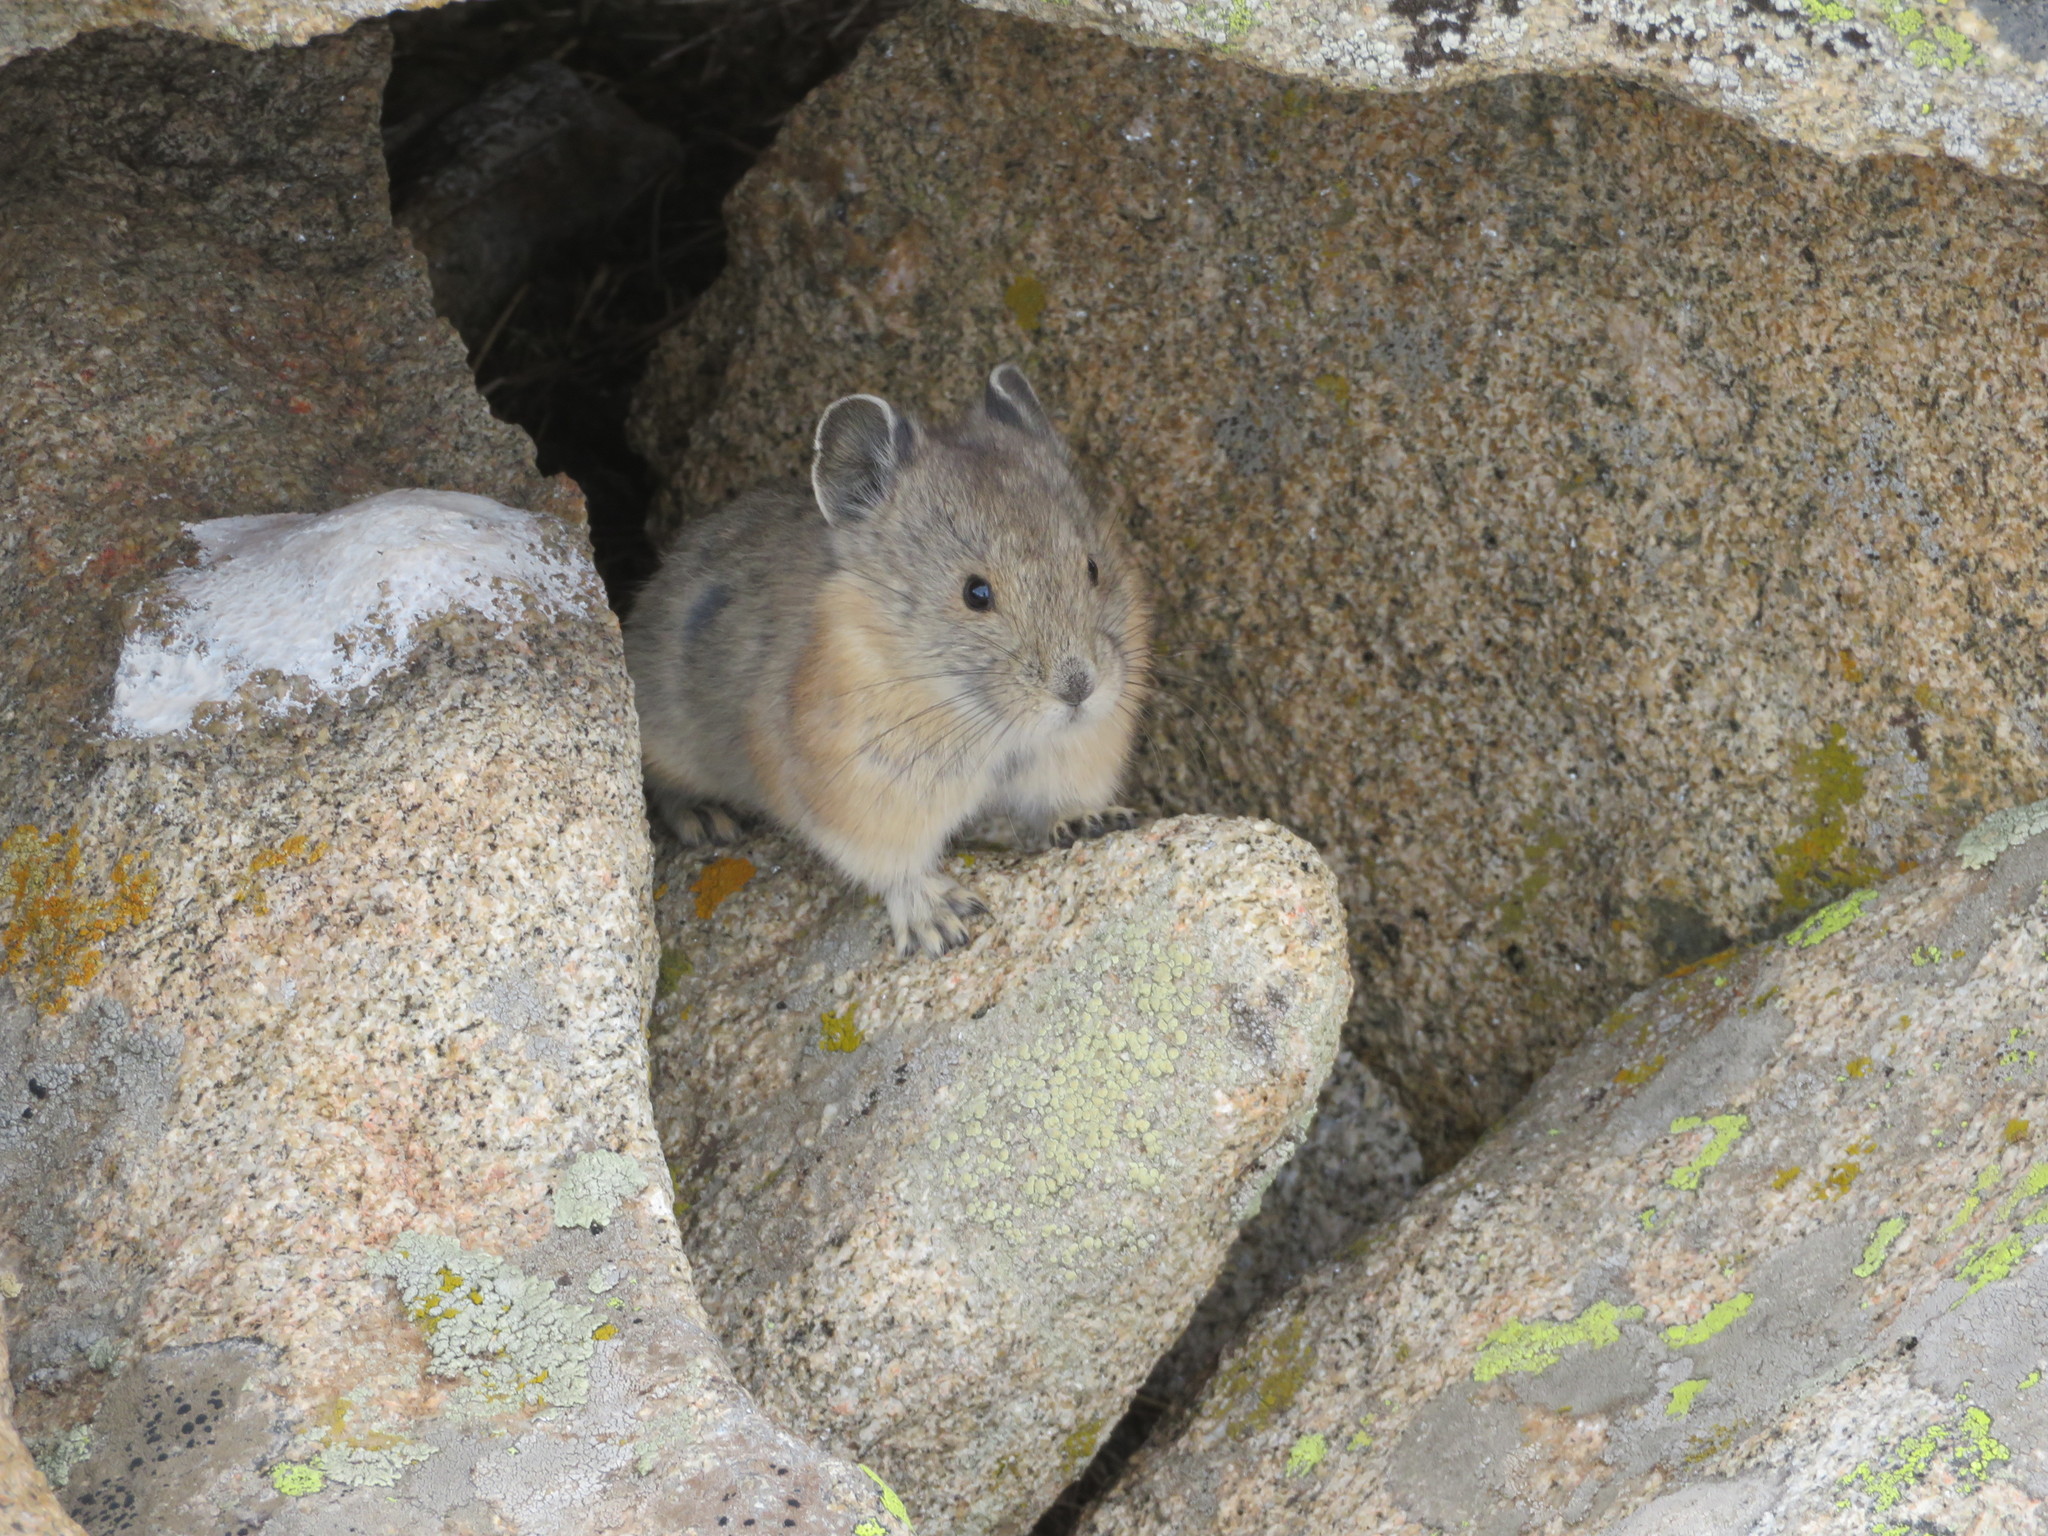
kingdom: Animalia
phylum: Chordata
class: Mammalia
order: Lagomorpha
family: Ochotonidae
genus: Ochotona
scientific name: Ochotona princeps
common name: American pika
